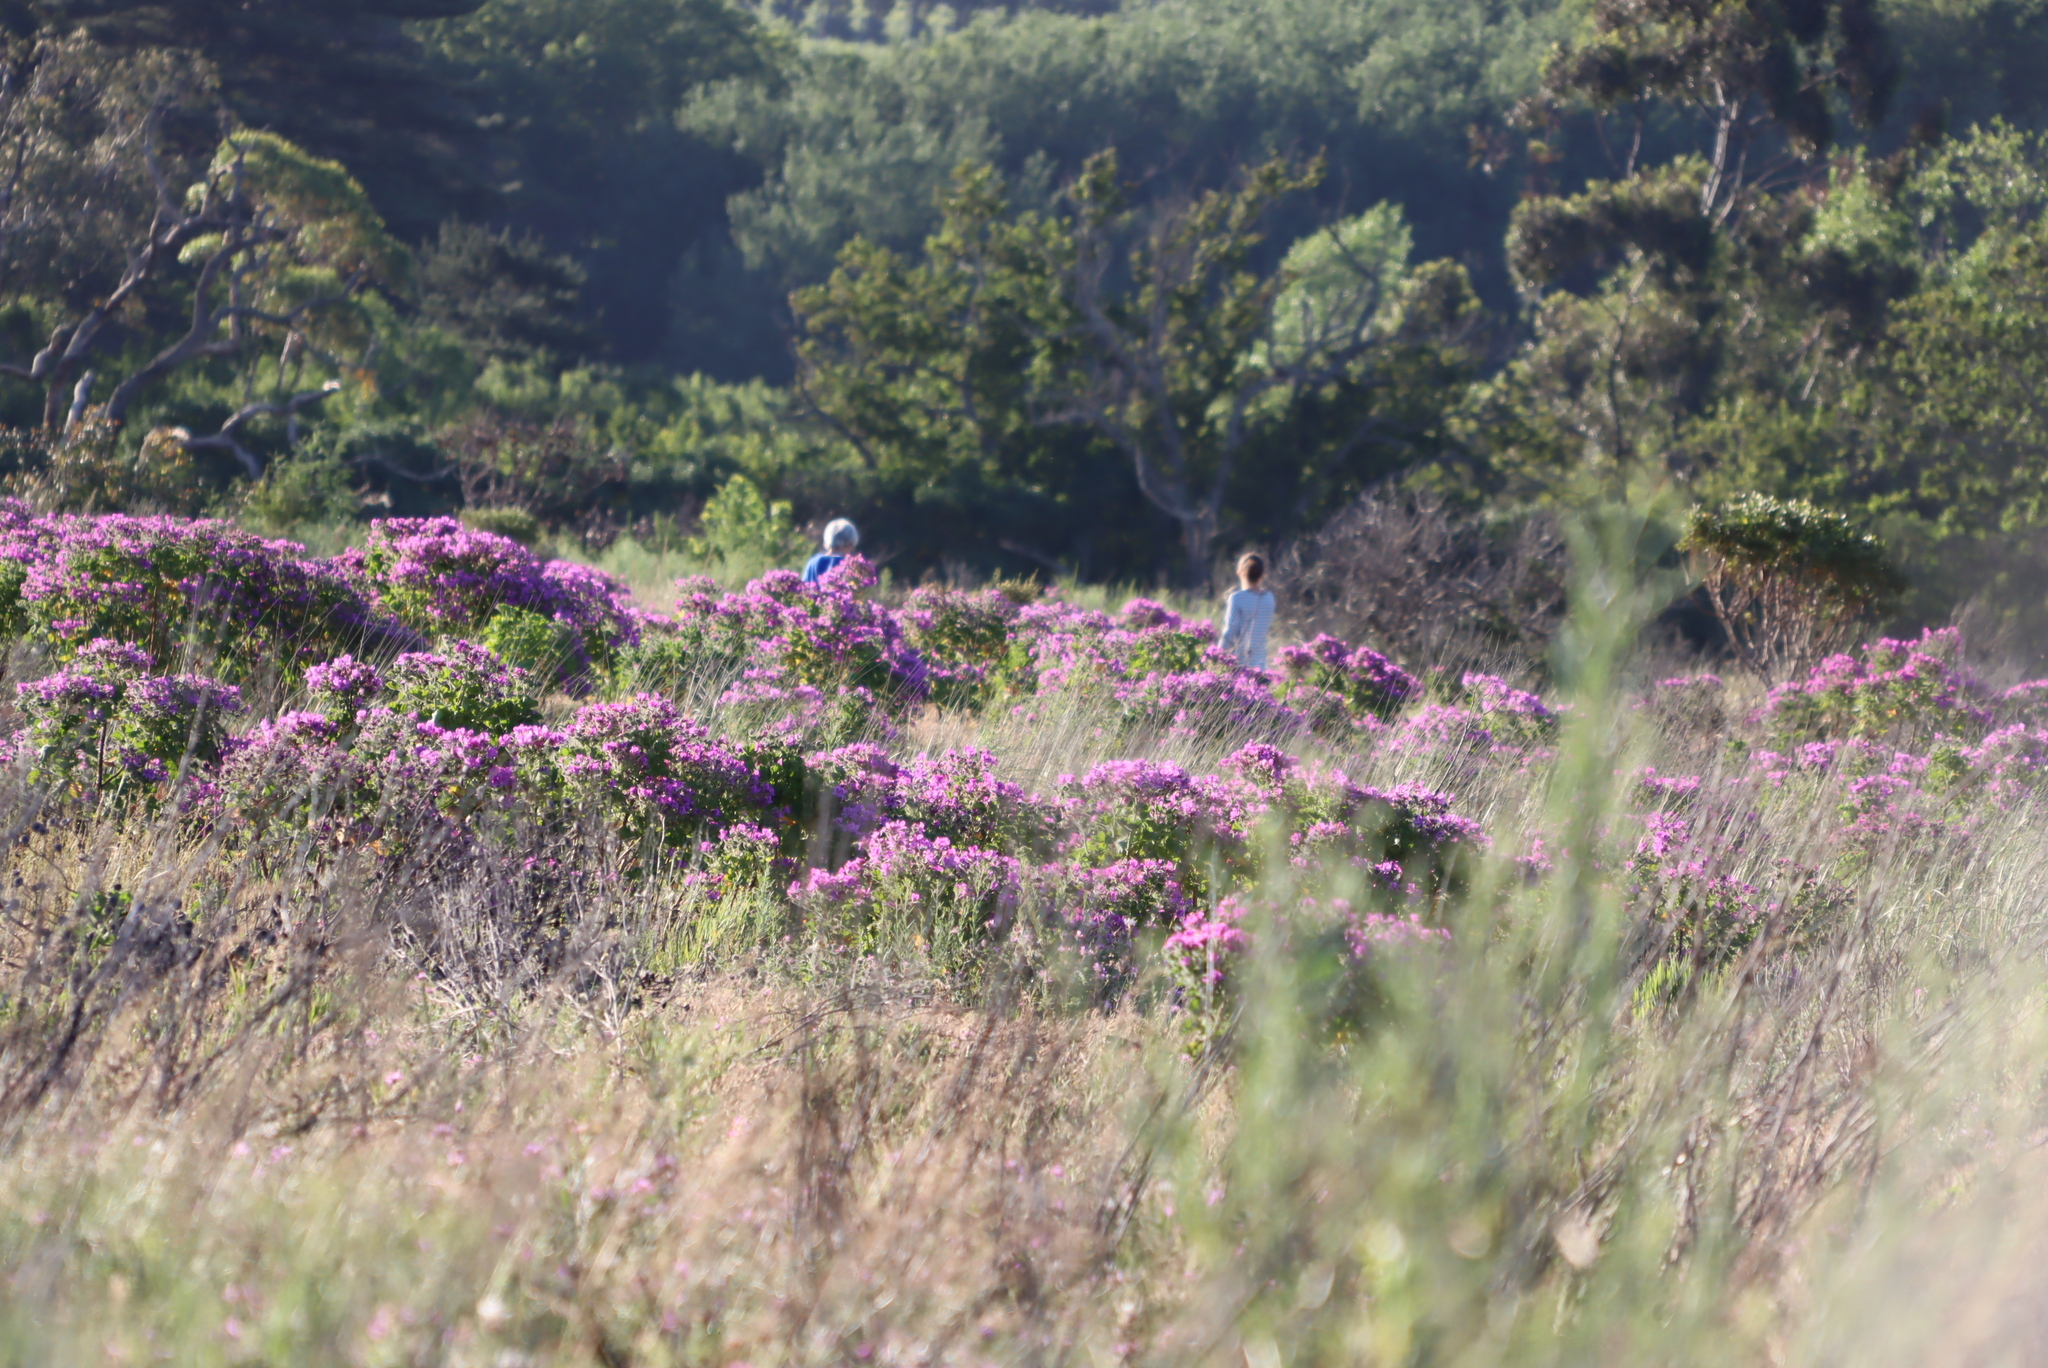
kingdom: Plantae
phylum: Tracheophyta
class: Magnoliopsida
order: Geraniales
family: Geraniaceae
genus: Pelargonium
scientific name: Pelargonium cucullatum
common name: Tree pelargonium
